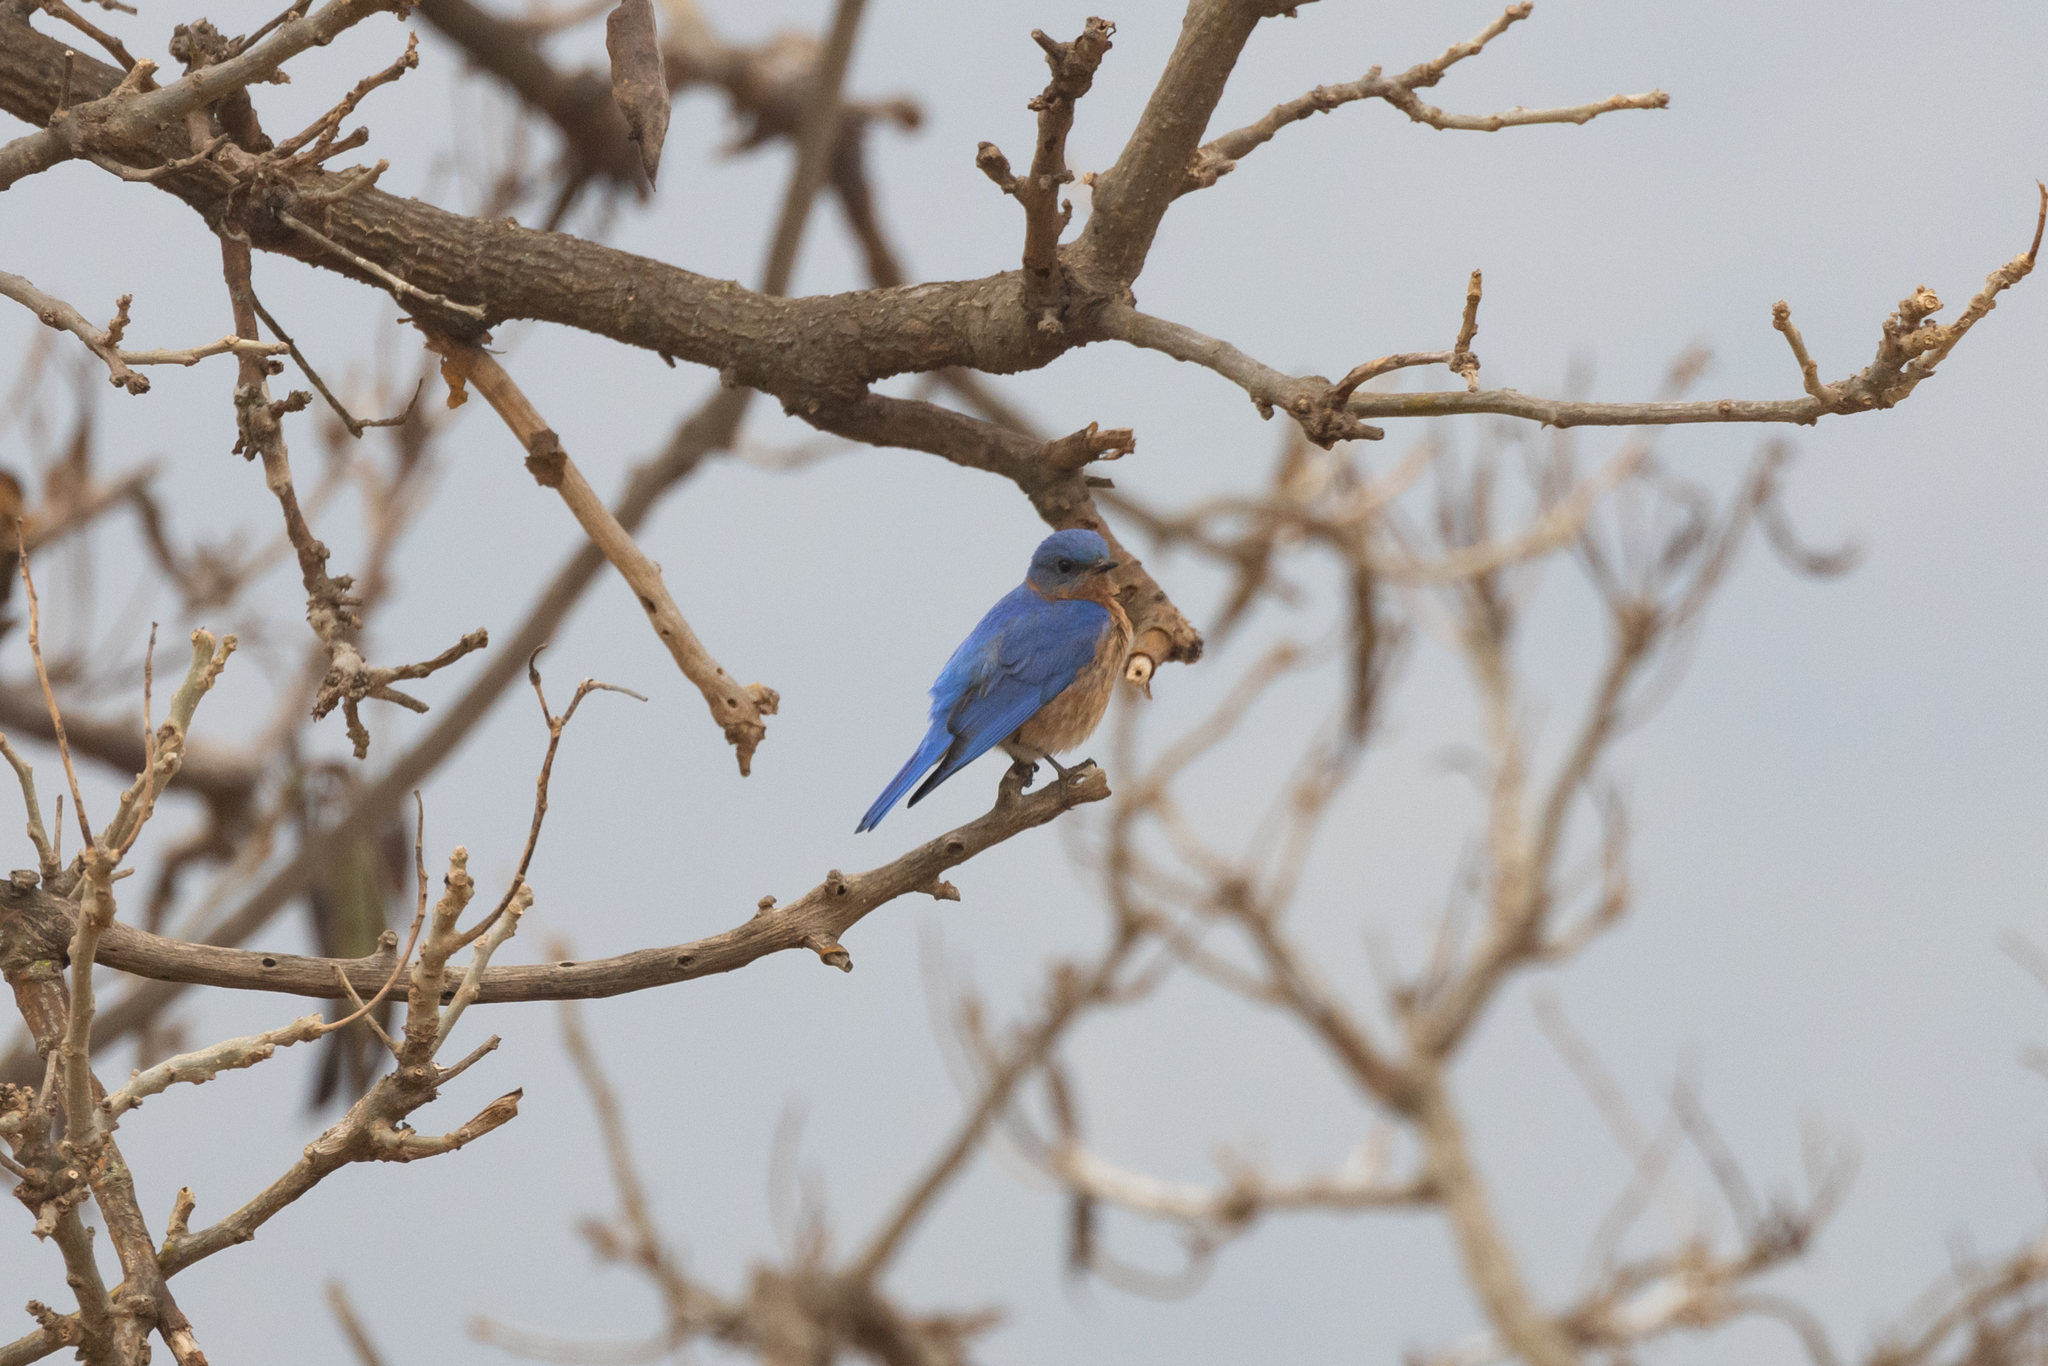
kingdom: Animalia
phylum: Chordata
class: Aves
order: Passeriformes
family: Turdidae
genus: Sialia
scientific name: Sialia sialis
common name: Eastern bluebird
